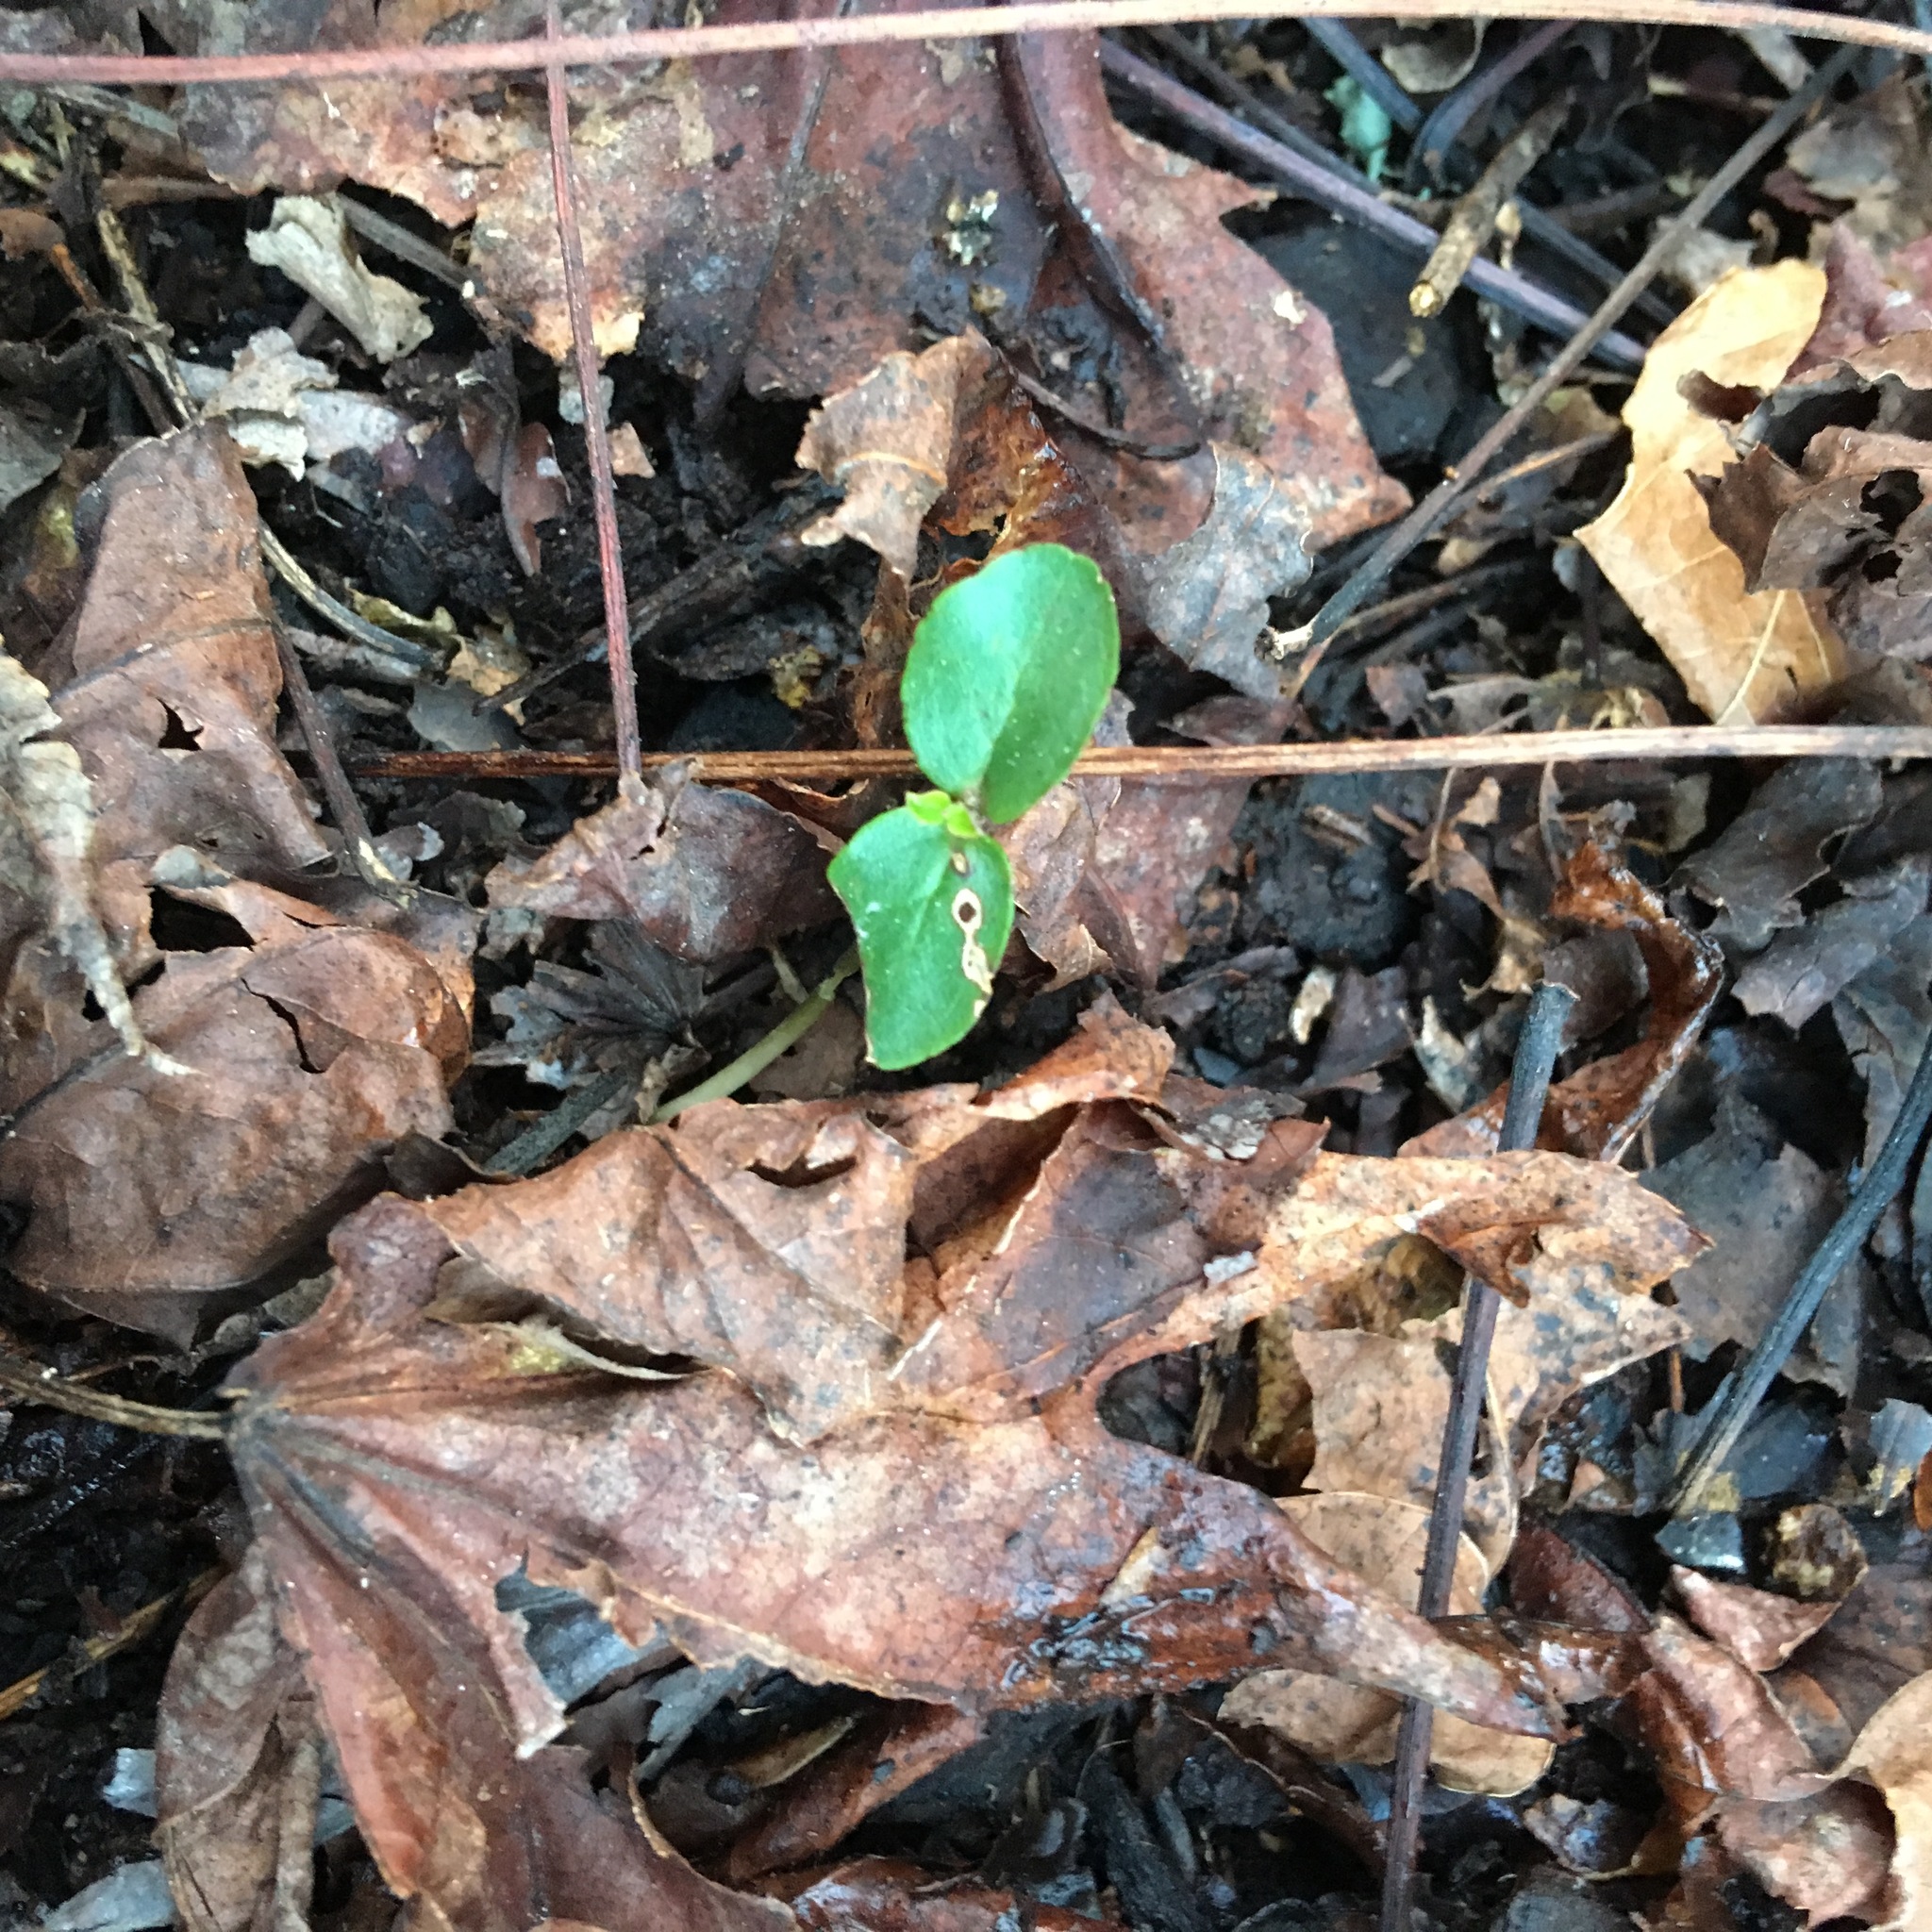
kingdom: Plantae
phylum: Tracheophyta
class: Magnoliopsida
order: Lamiales
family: Oleaceae
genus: Ligustrum
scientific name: Ligustrum sinense
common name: Chinese privet
